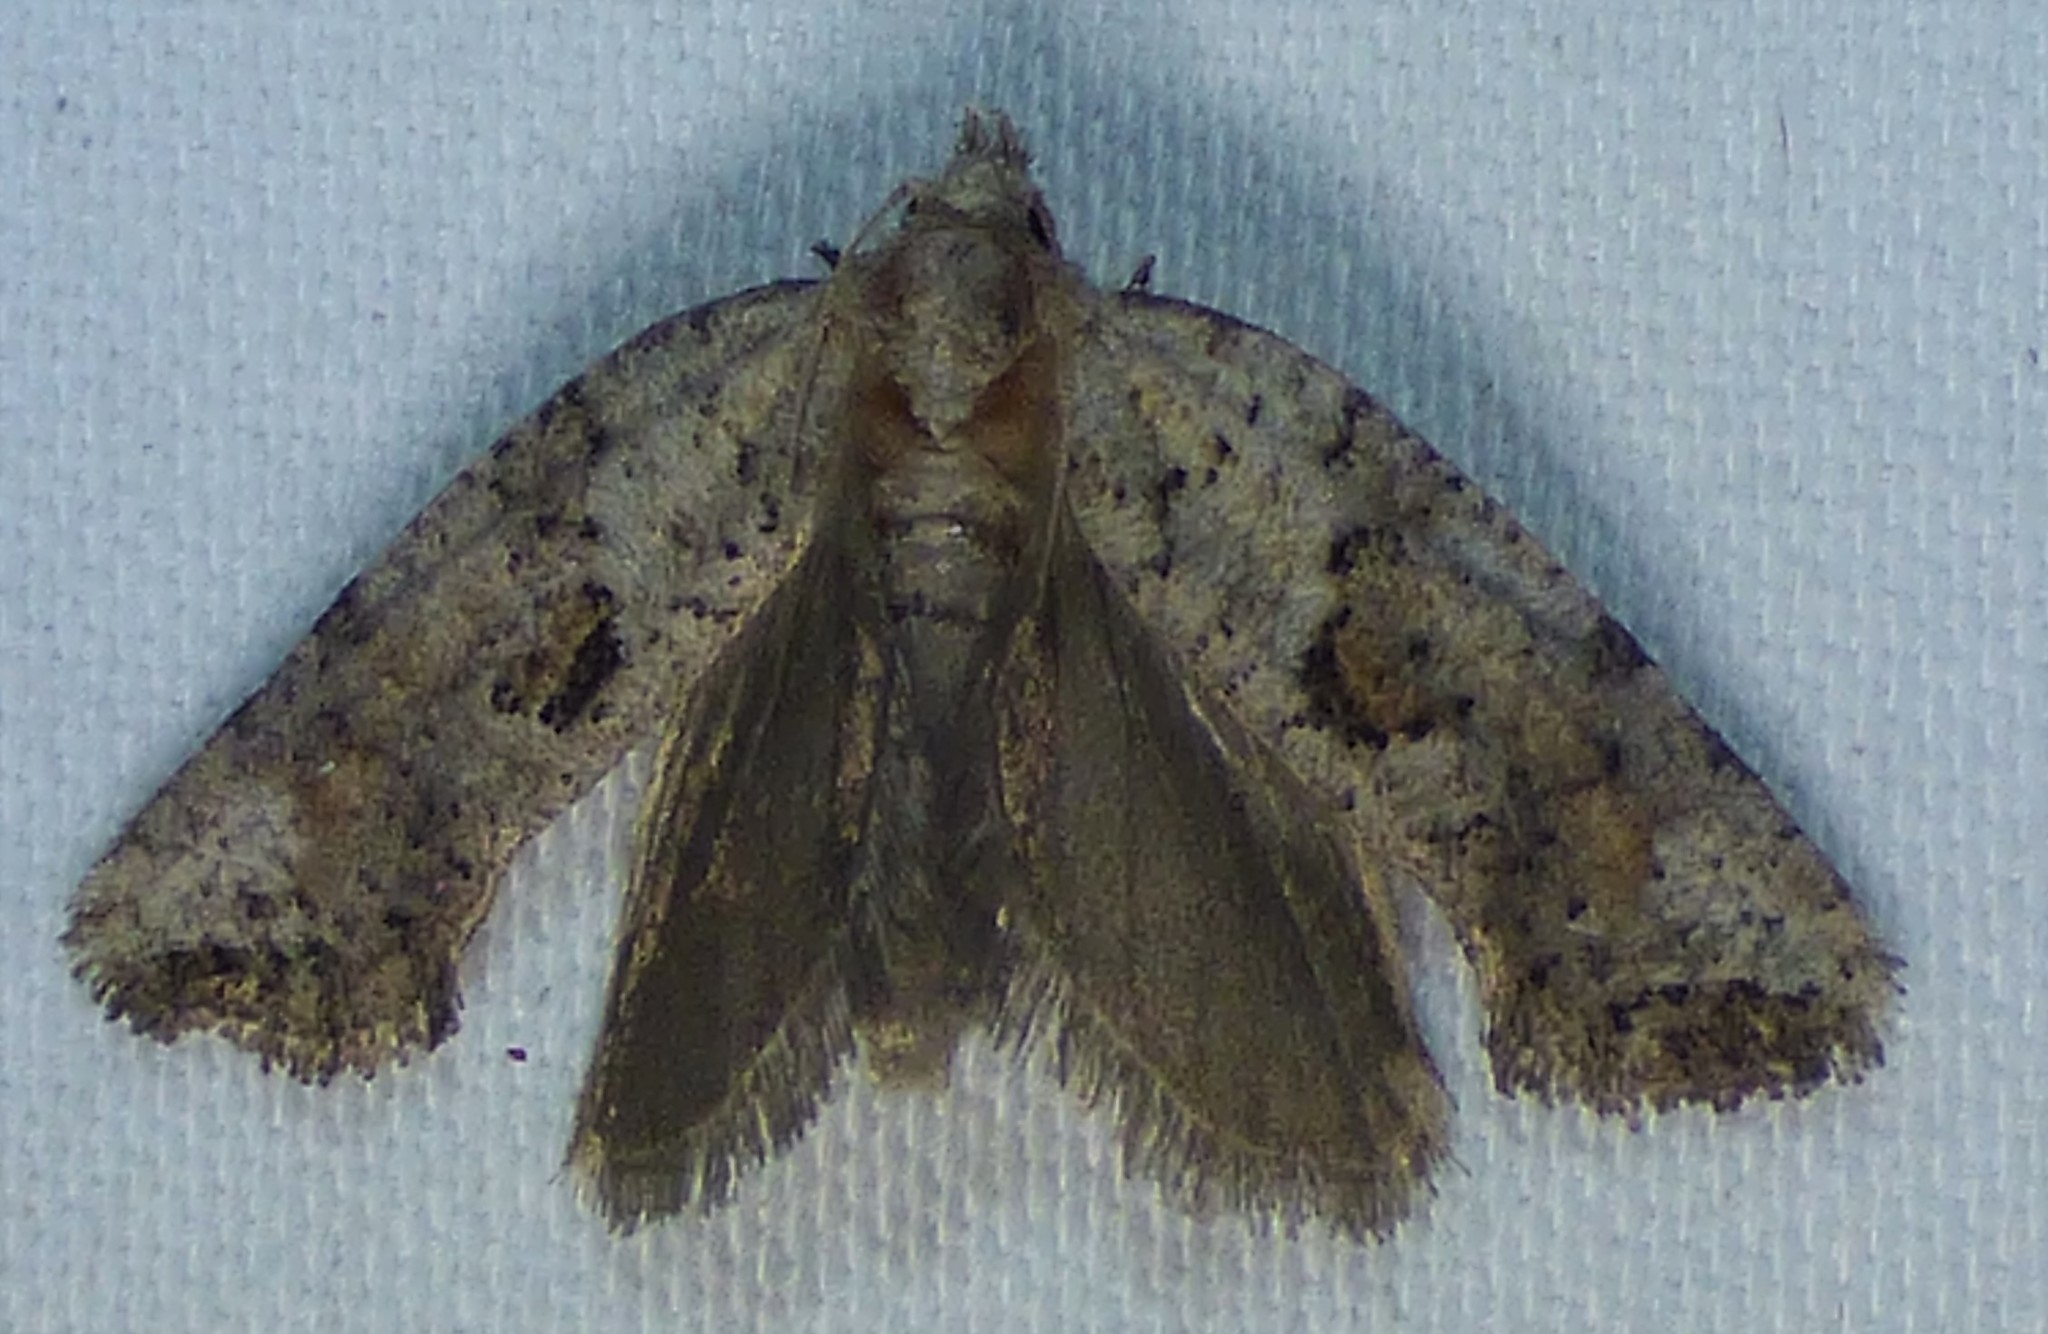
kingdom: Animalia
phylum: Arthropoda
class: Insecta
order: Lepidoptera
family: Tineidae
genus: Acrolophus
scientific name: Acrolophus piger
